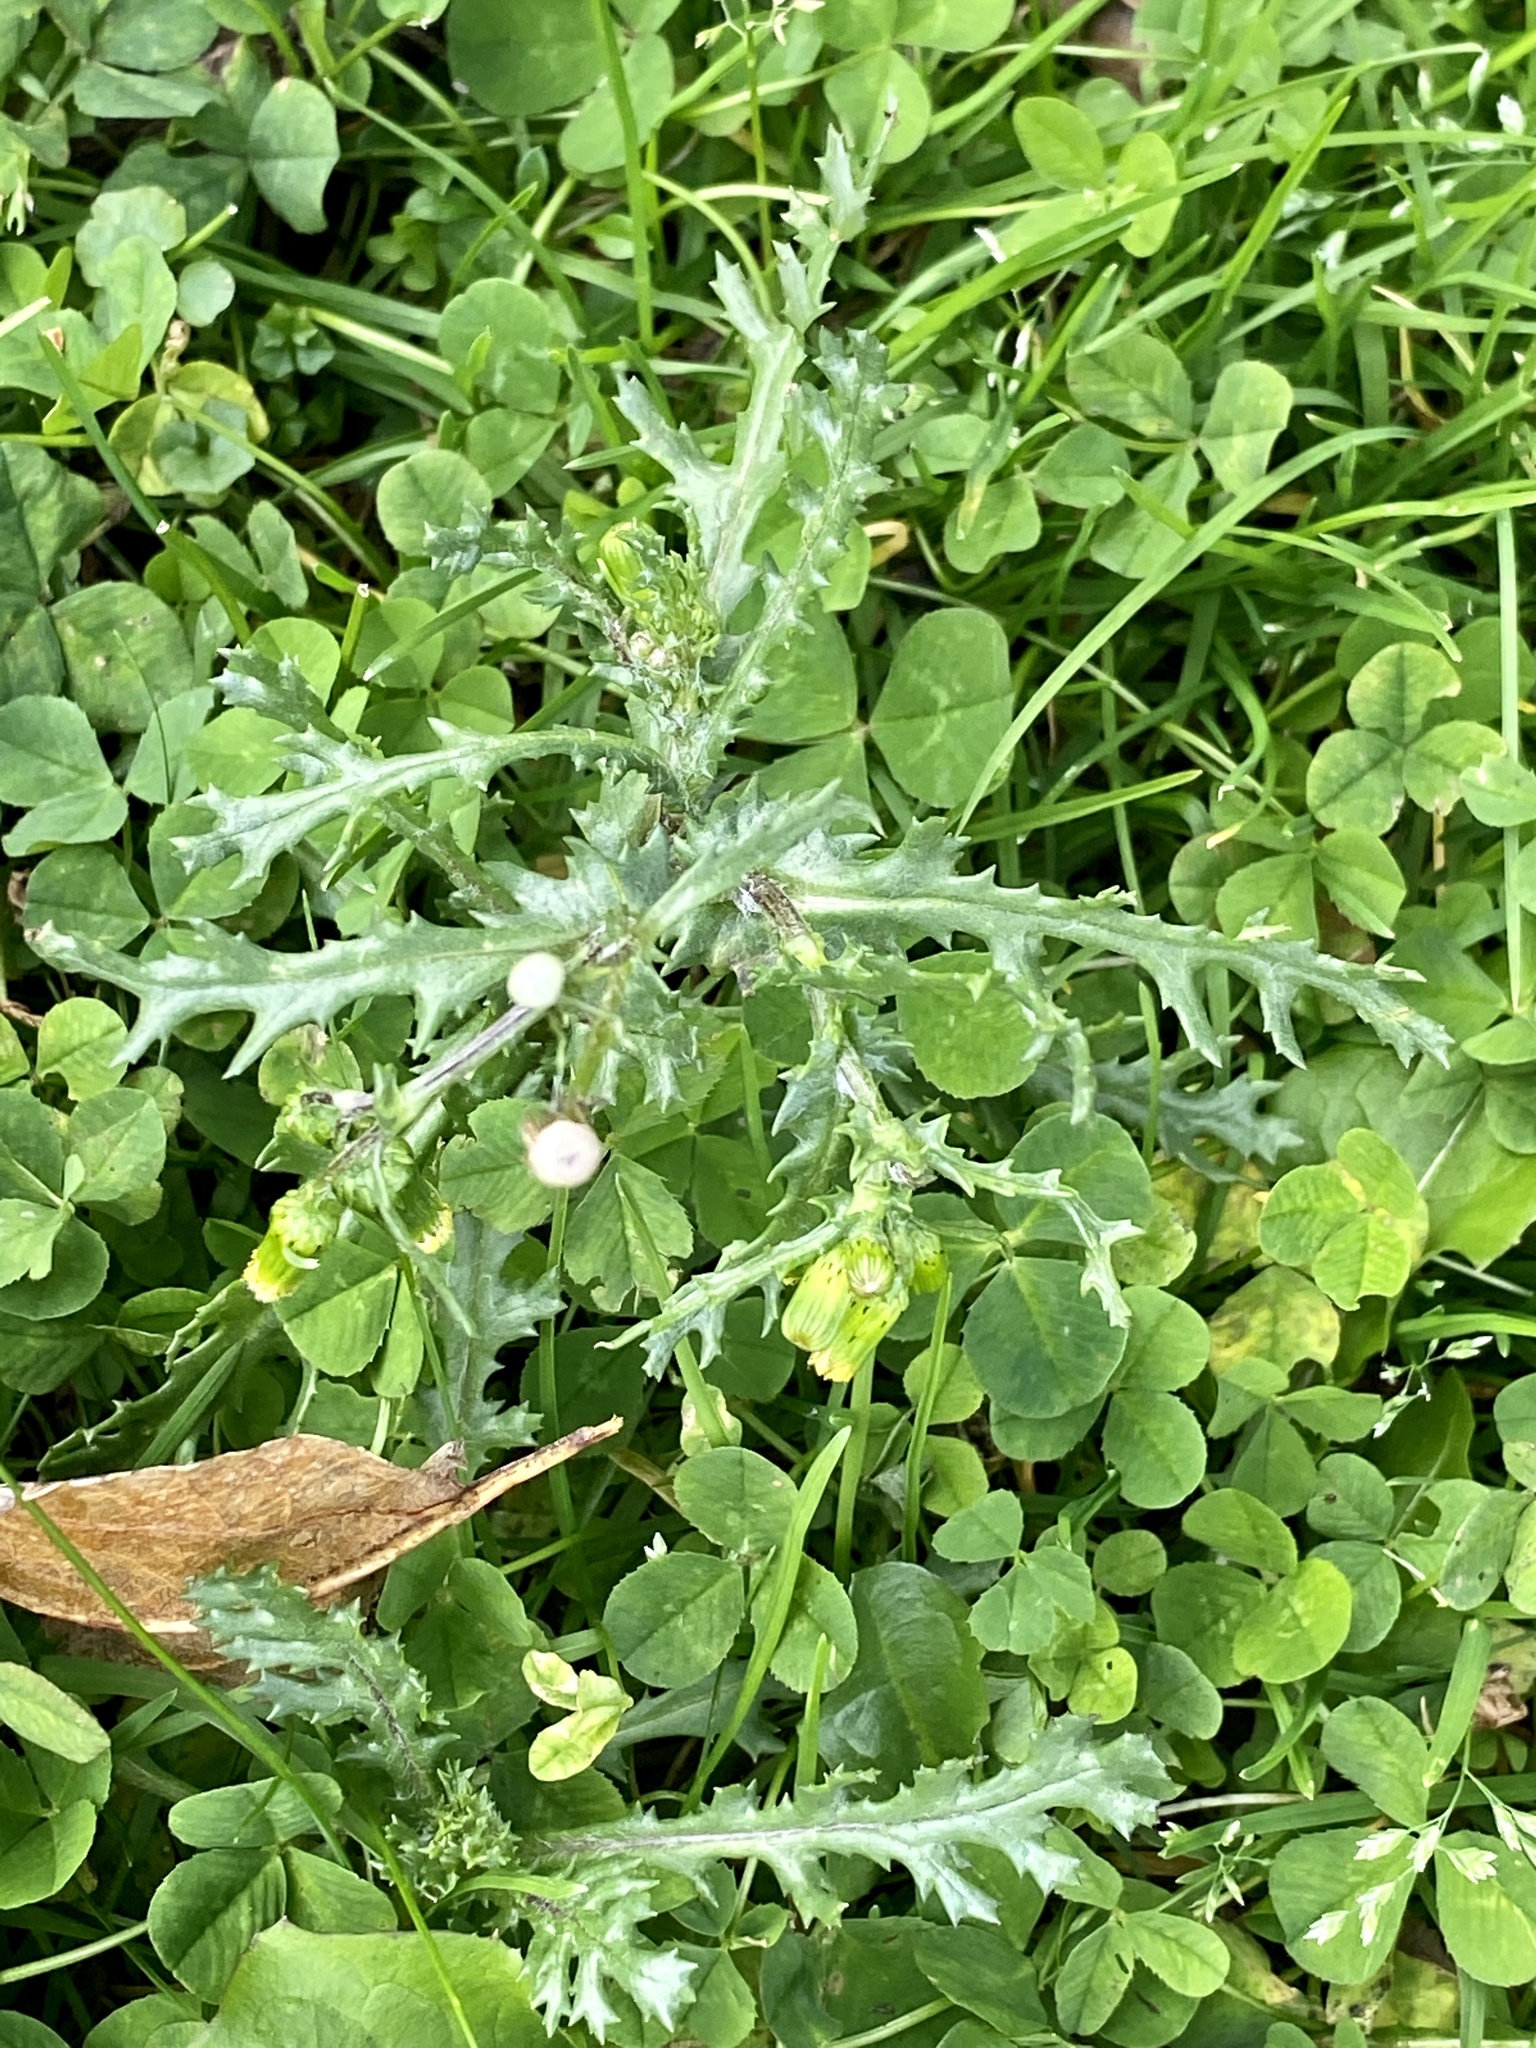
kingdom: Plantae
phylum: Tracheophyta
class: Magnoliopsida
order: Asterales
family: Asteraceae
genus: Senecio
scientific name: Senecio vulgaris
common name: Old-man-in-the-spring
